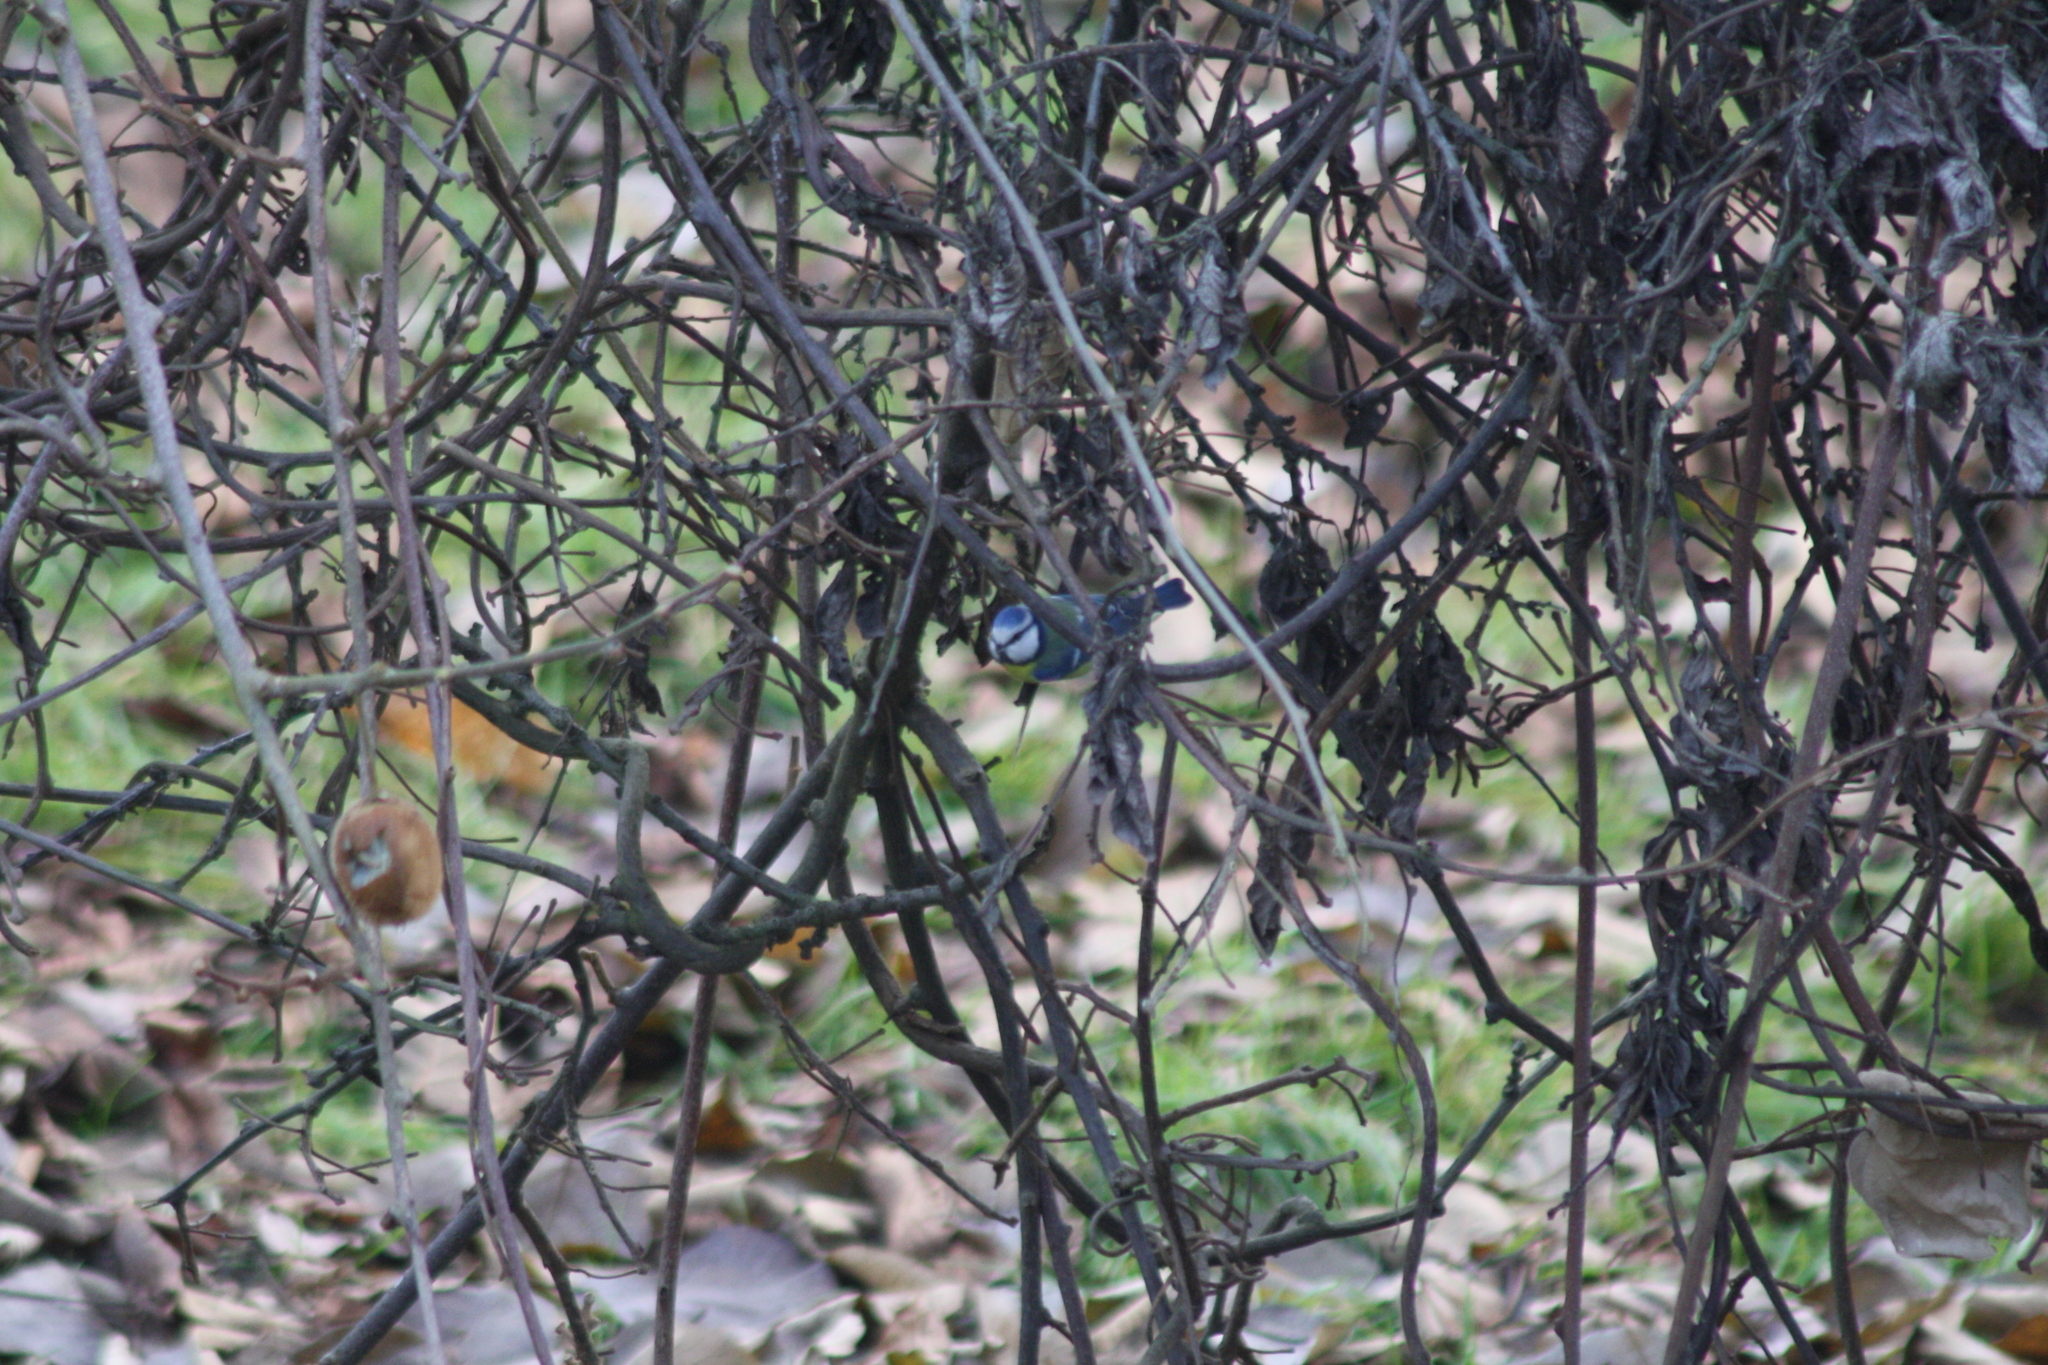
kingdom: Animalia
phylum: Chordata
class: Aves
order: Passeriformes
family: Paridae
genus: Cyanistes
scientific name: Cyanistes caeruleus
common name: Eurasian blue tit
